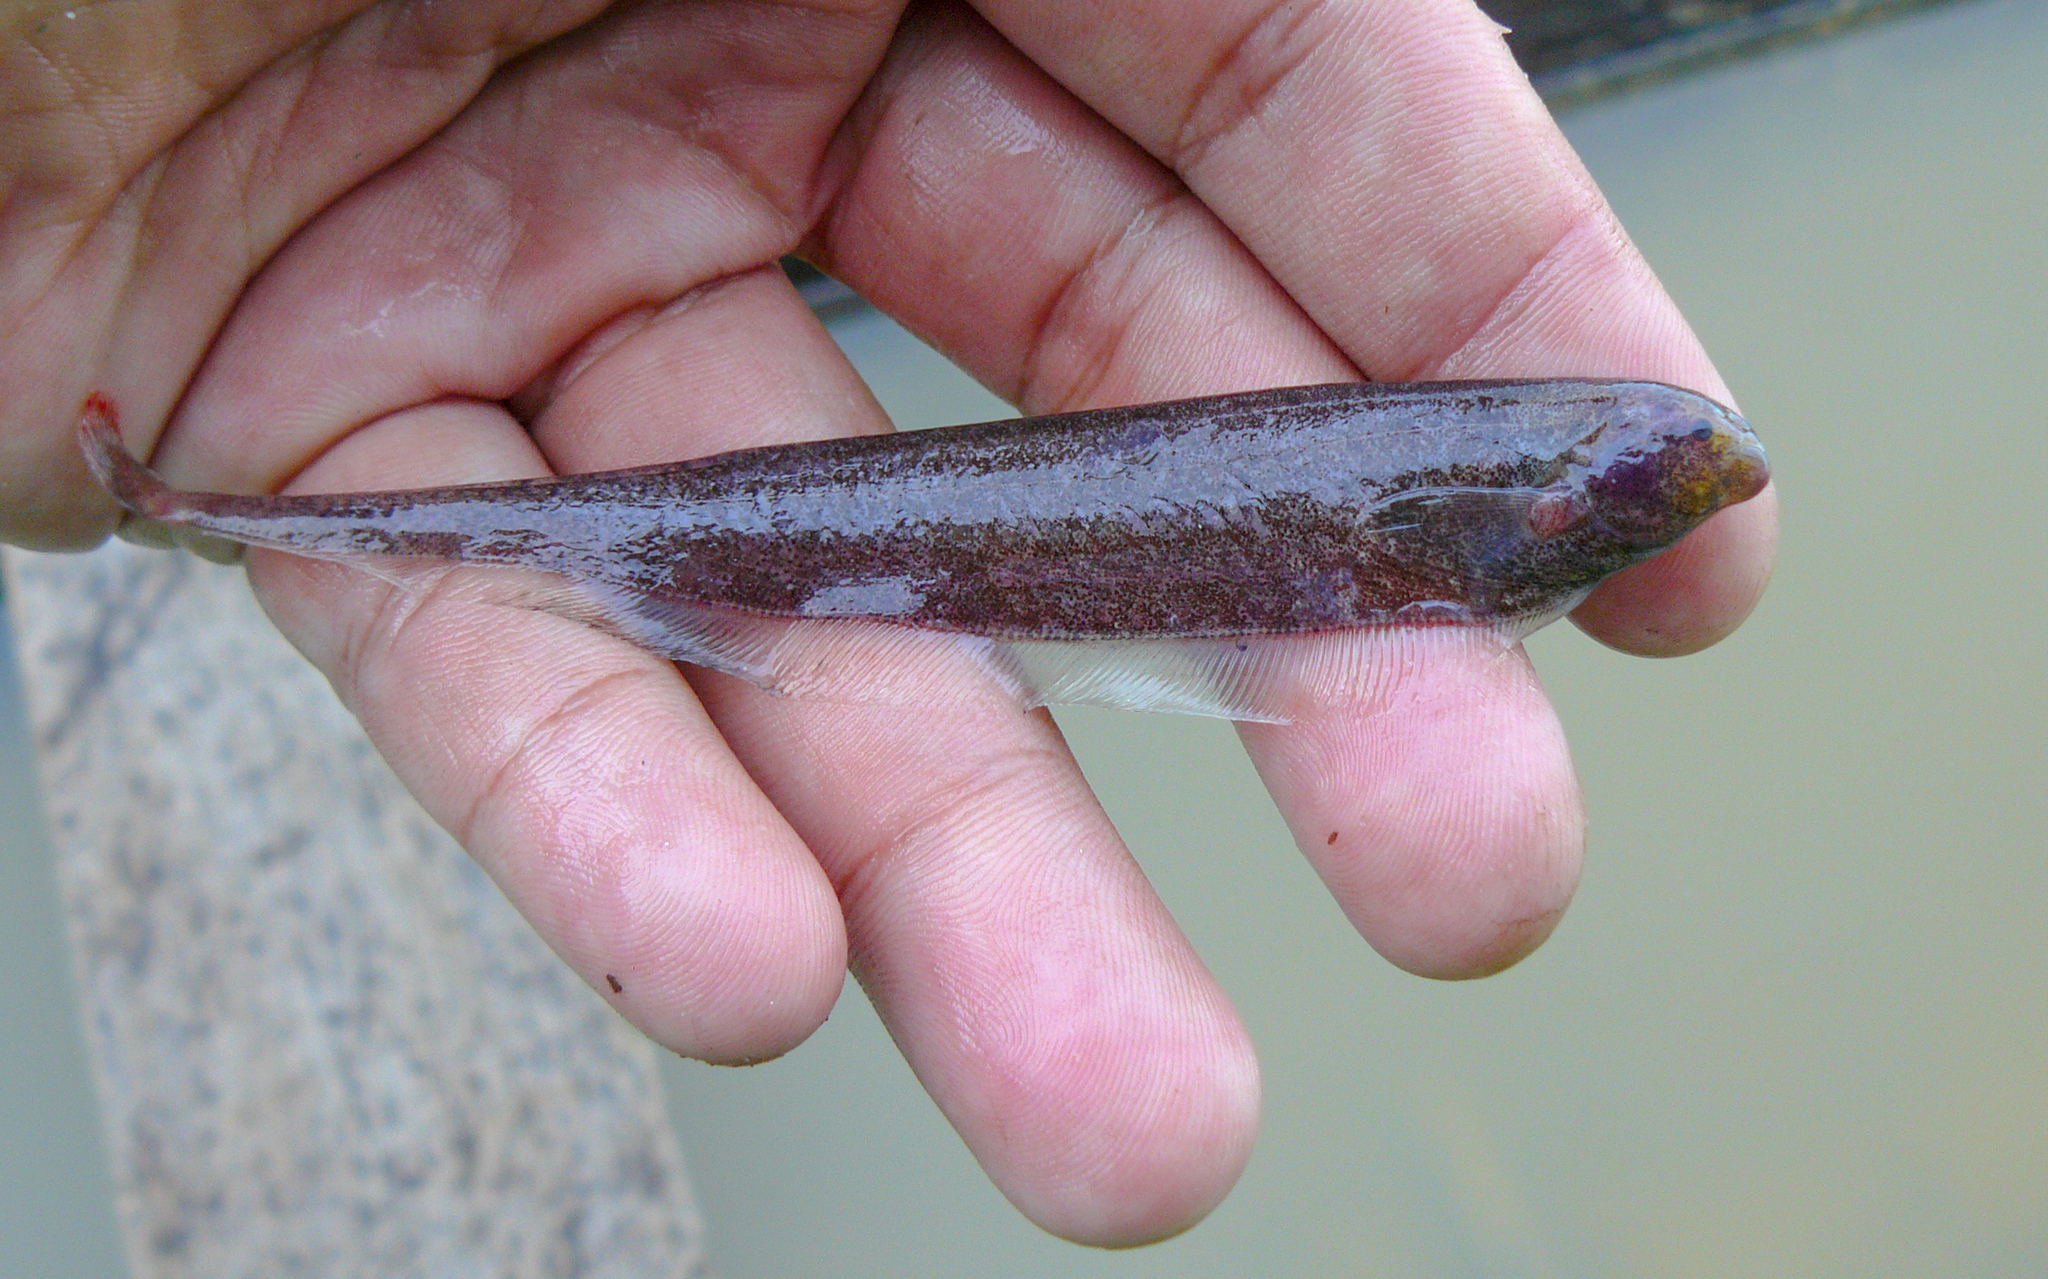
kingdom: Animalia
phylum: Chordata
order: Gymnotiformes
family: Apteronotidae
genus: Adontosternarchus
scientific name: Adontosternarchus sachsi
